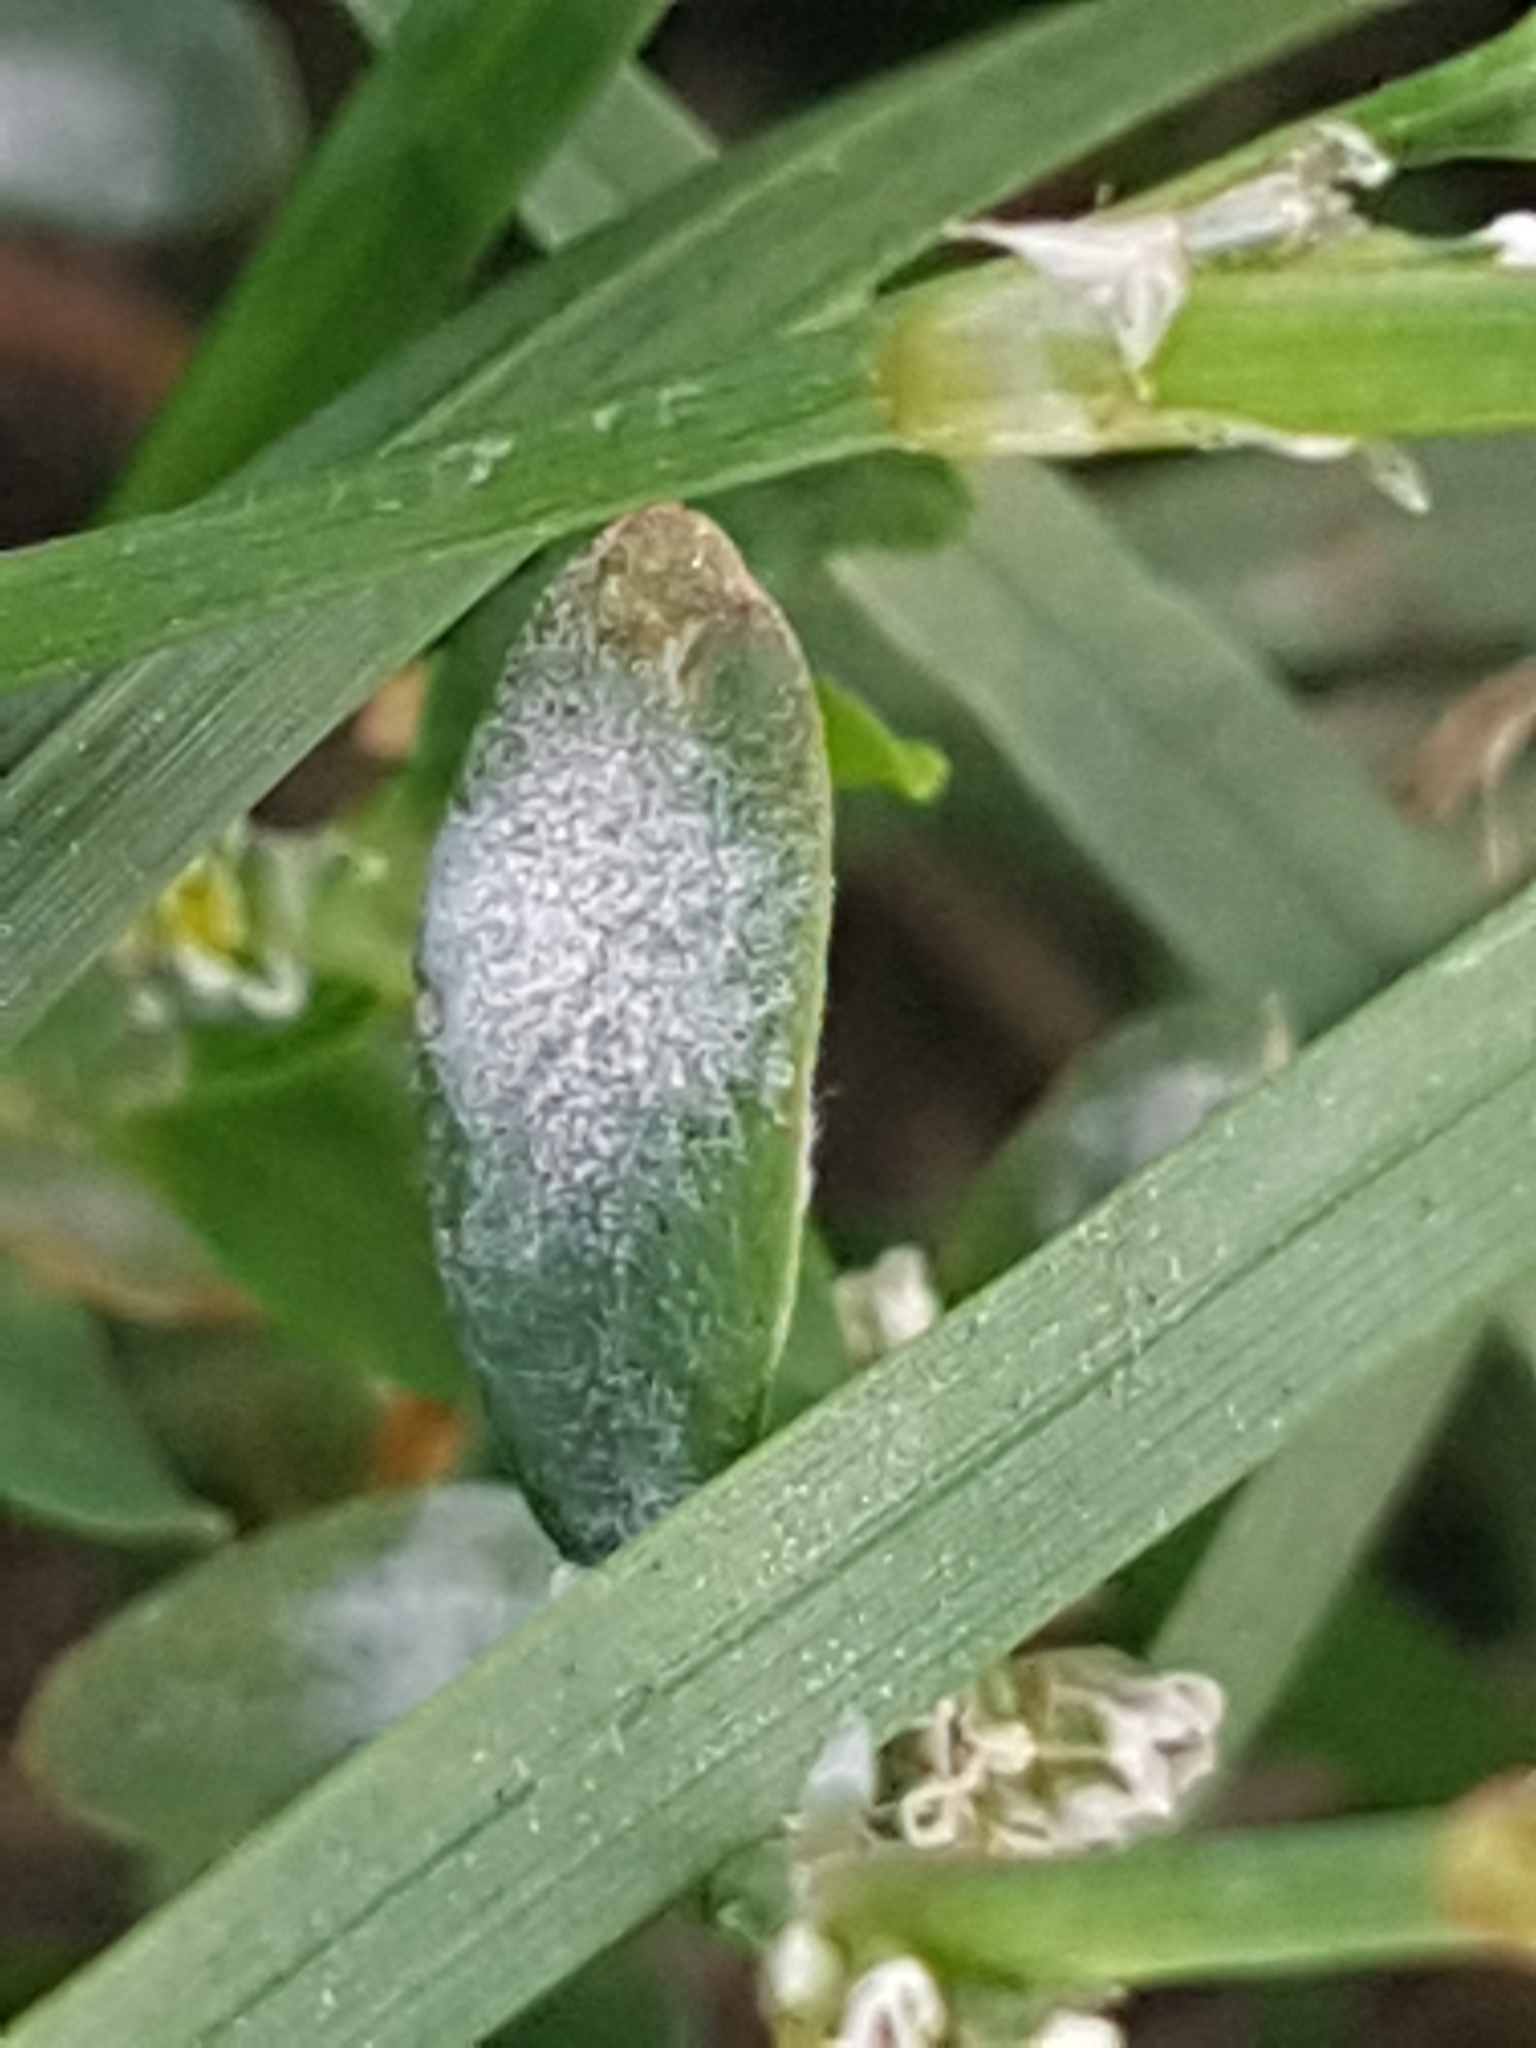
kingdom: Fungi
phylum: Ascomycota
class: Leotiomycetes
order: Helotiales
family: Erysiphaceae
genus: Erysiphe
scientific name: Erysiphe polygoni
